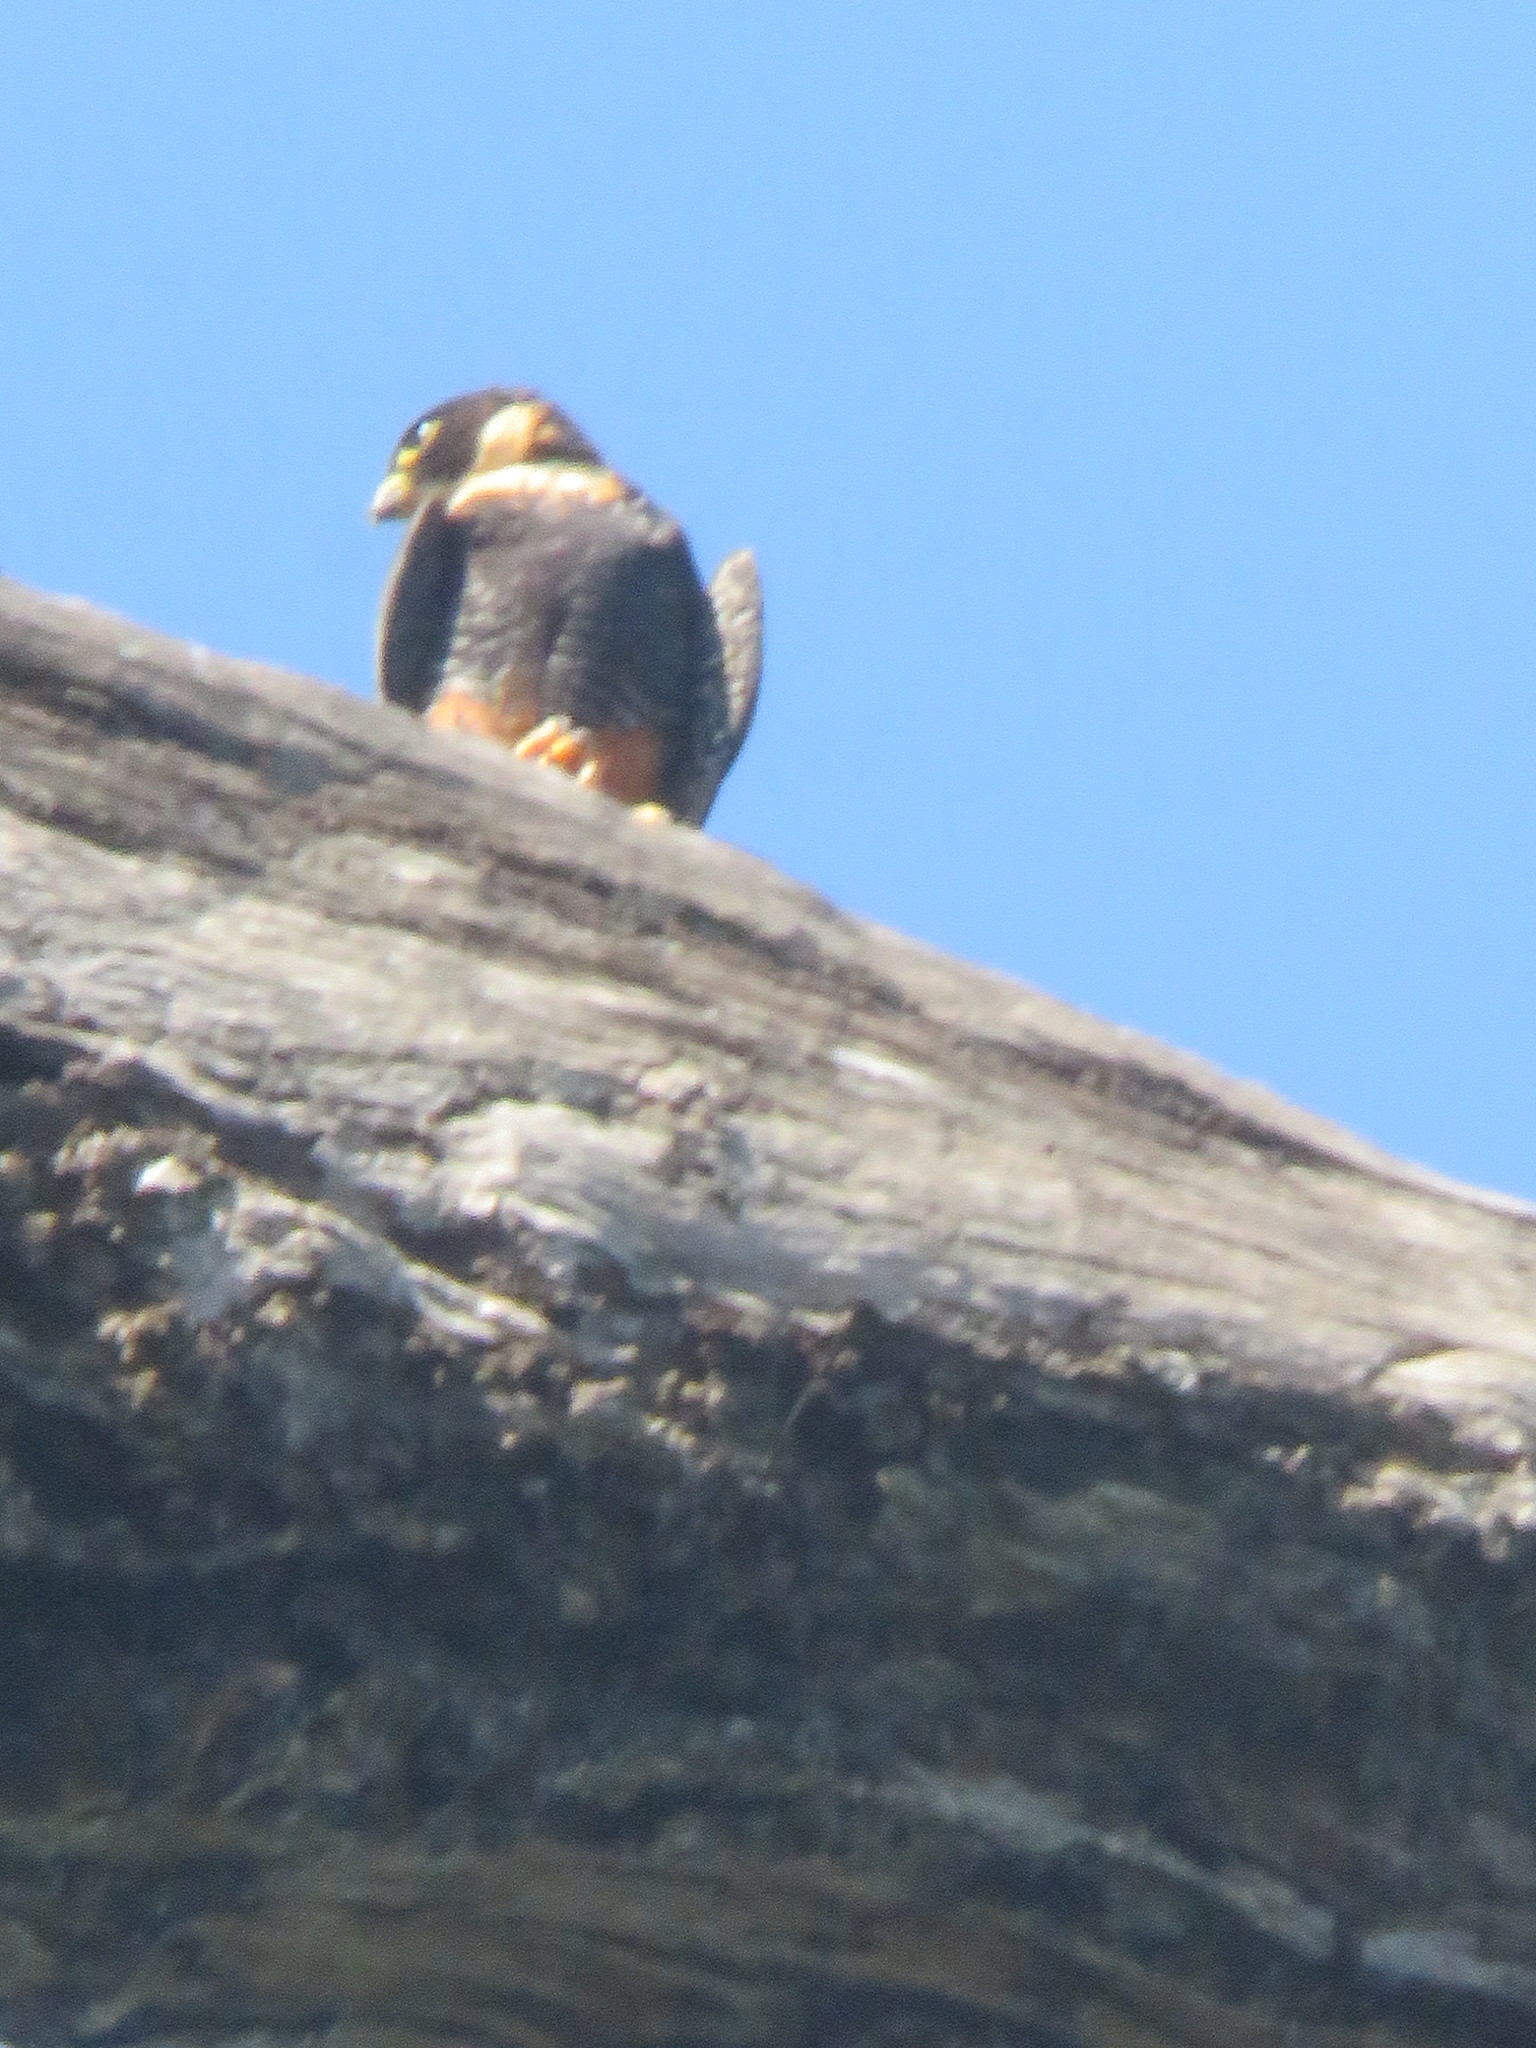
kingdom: Animalia
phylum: Chordata
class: Aves
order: Falconiformes
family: Falconidae
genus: Falco
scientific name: Falco rufigularis
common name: Bat falcon
